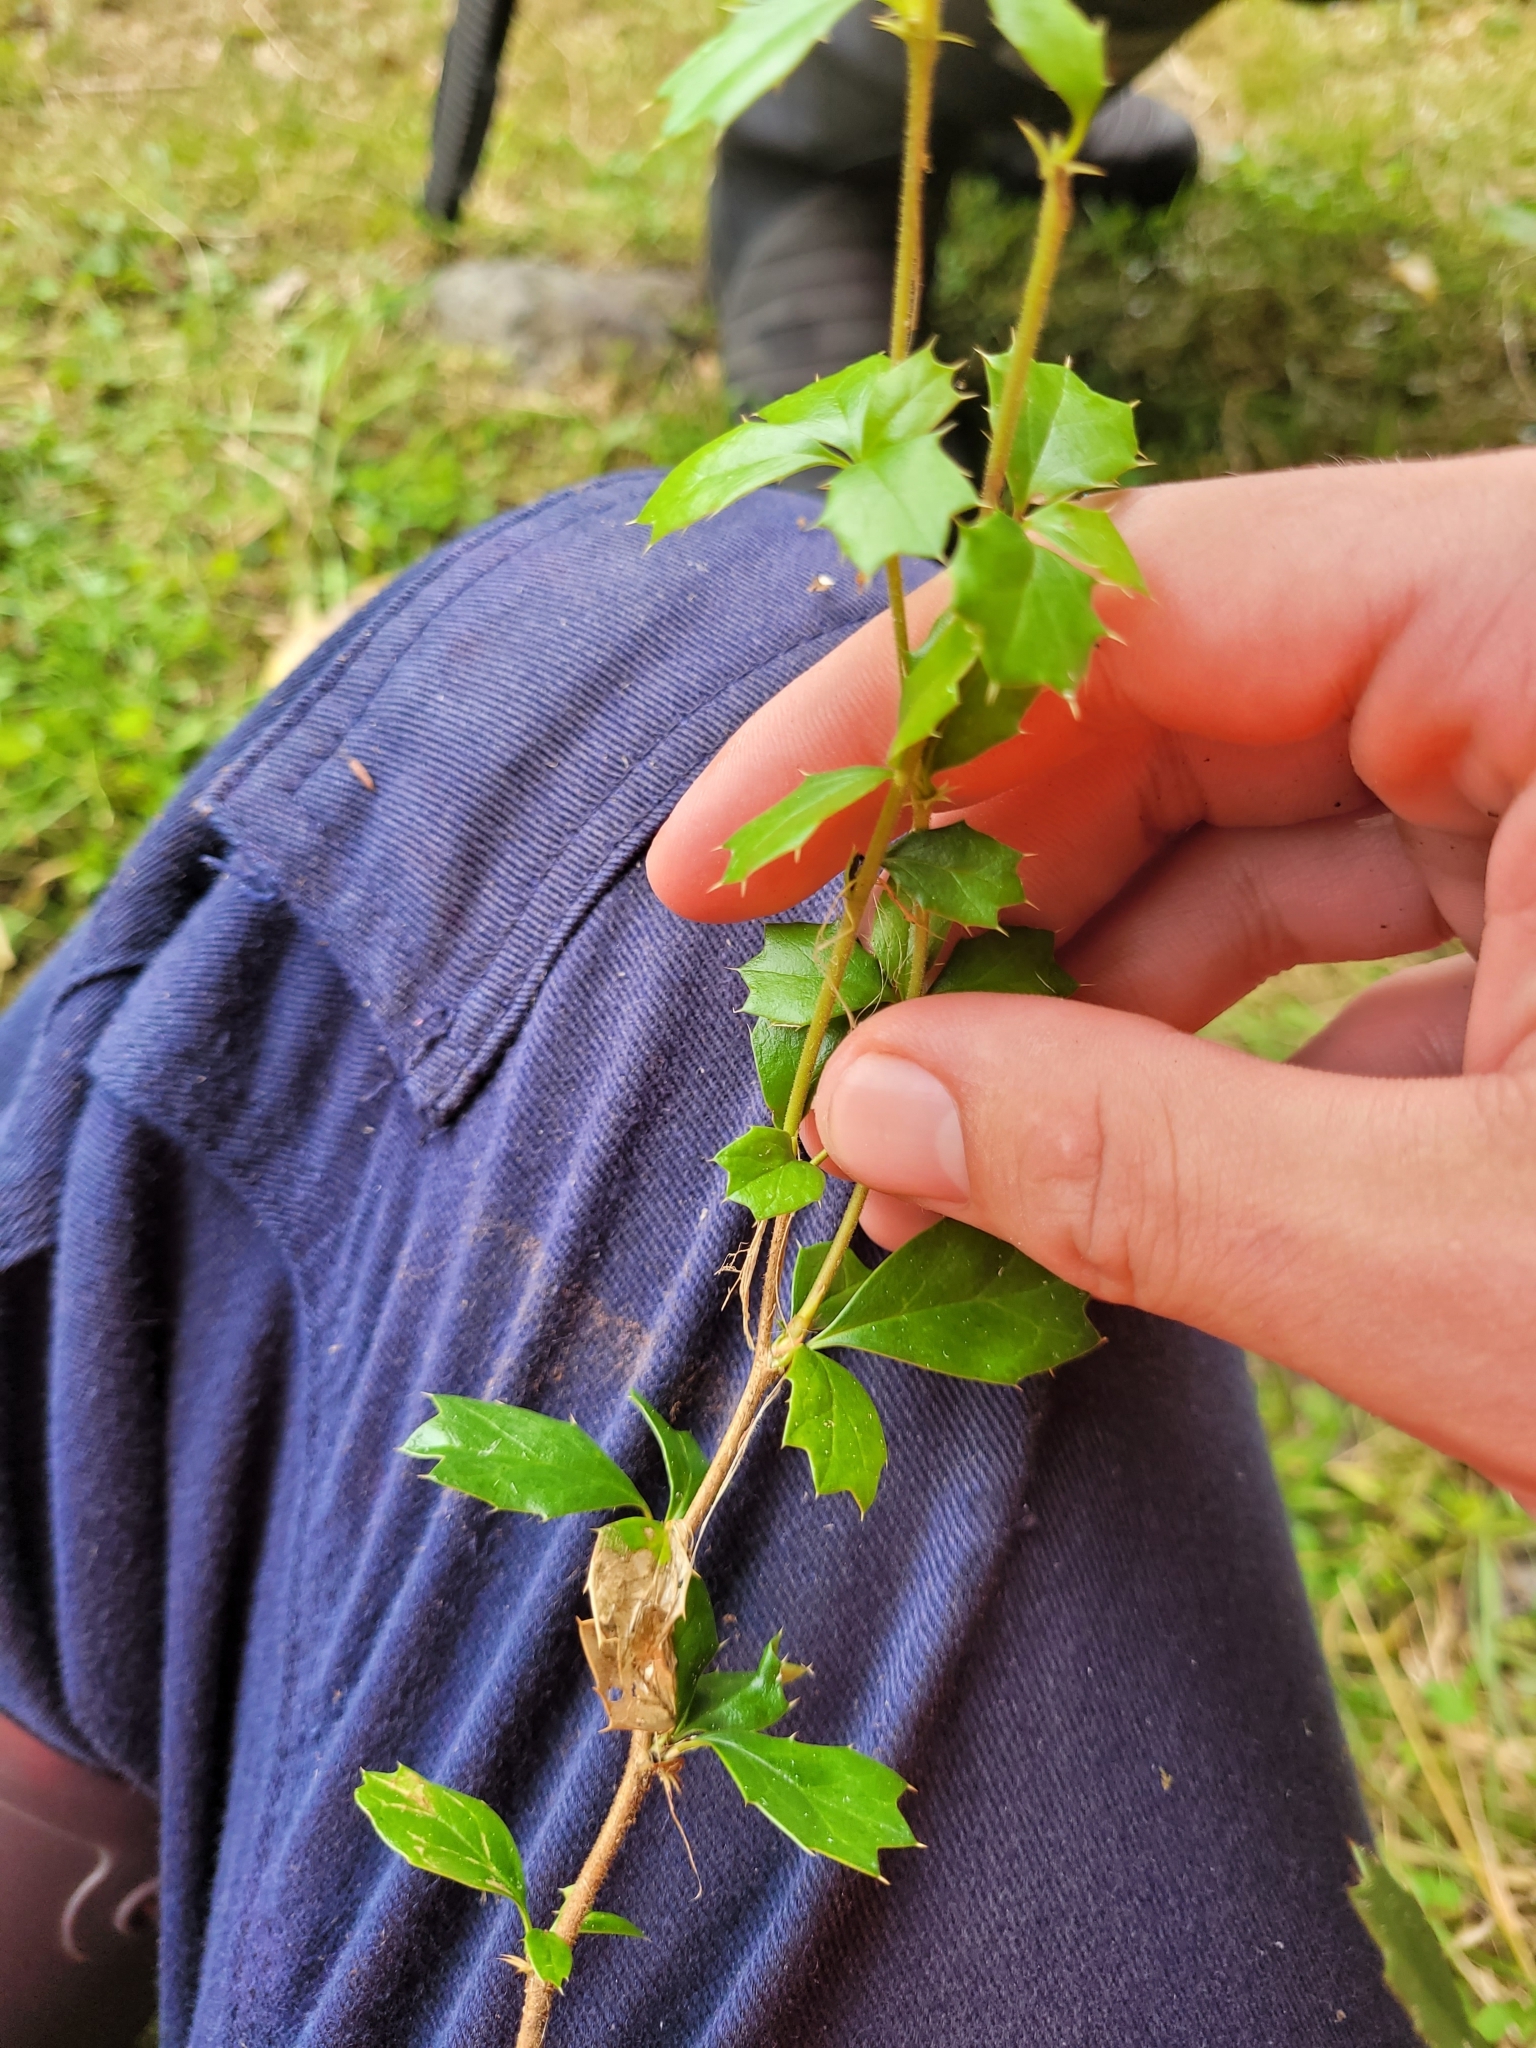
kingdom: Plantae
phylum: Tracheophyta
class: Magnoliopsida
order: Ranunculales
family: Berberidaceae
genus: Berberis
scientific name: Berberis darwinii
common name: Darwin's barberry
